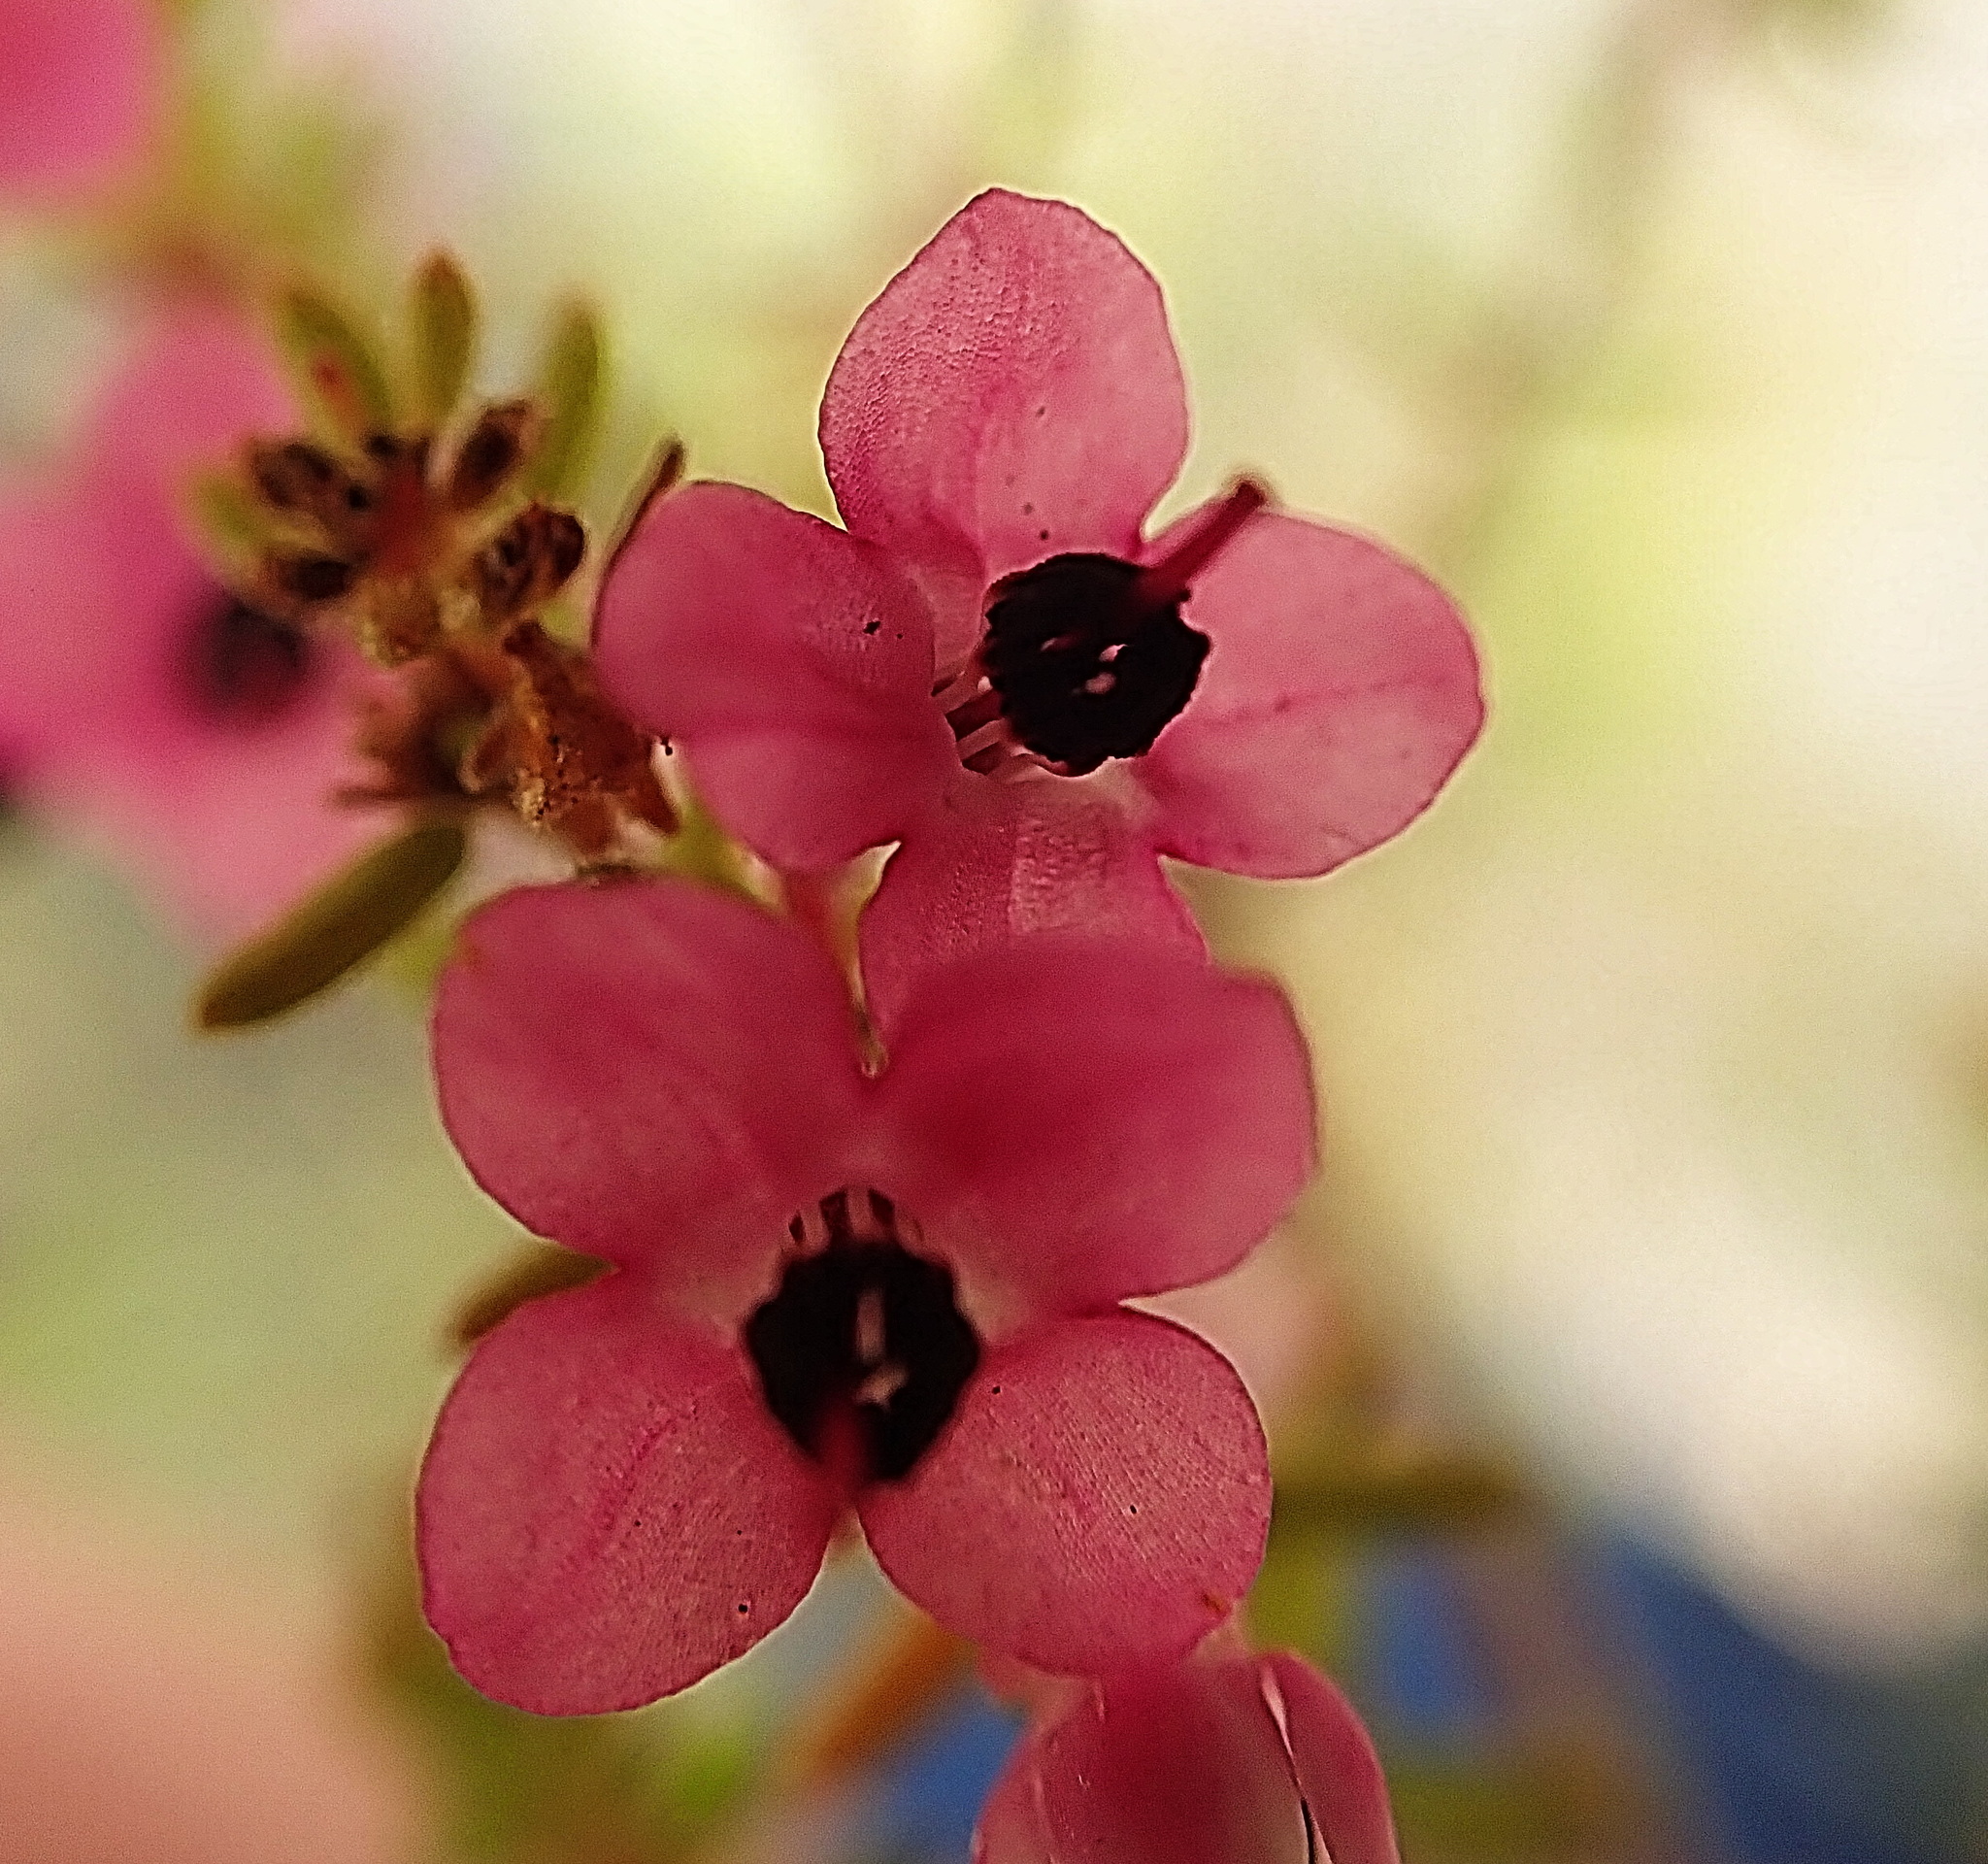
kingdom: Plantae
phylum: Tracheophyta
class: Magnoliopsida
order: Ericales
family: Ericaceae
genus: Erica
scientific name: Erica melanthera
